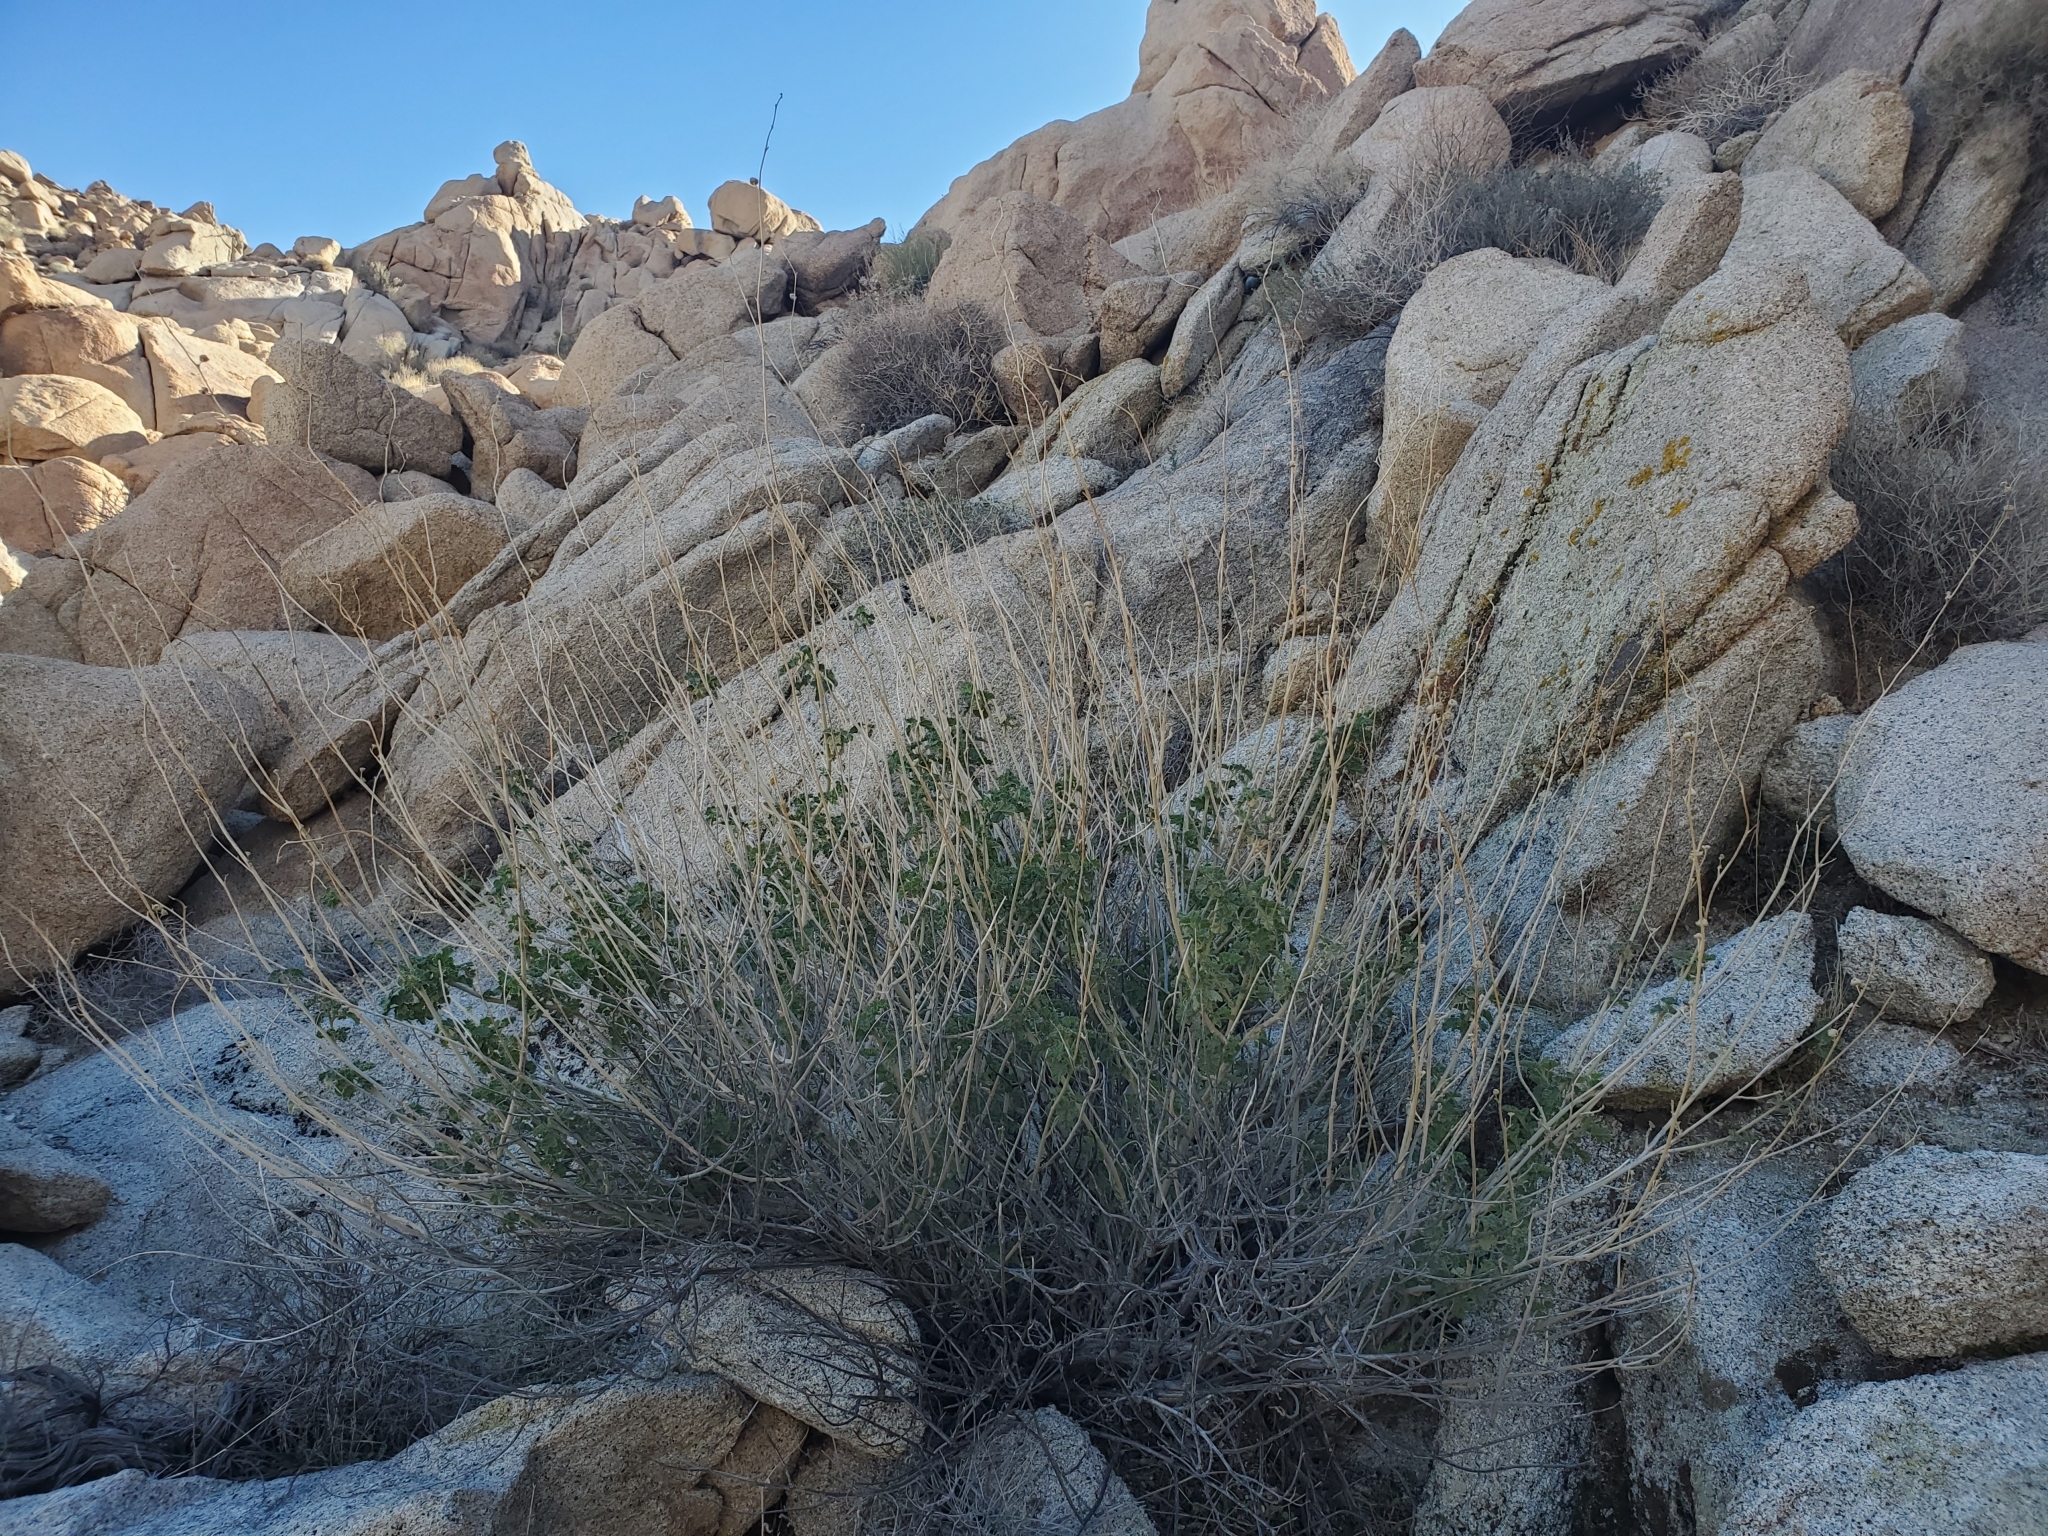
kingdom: Plantae
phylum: Tracheophyta
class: Magnoliopsida
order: Malvales
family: Malvaceae
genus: Sphaeralcea
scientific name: Sphaeralcea ambigua
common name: Apricot globe-mallow
